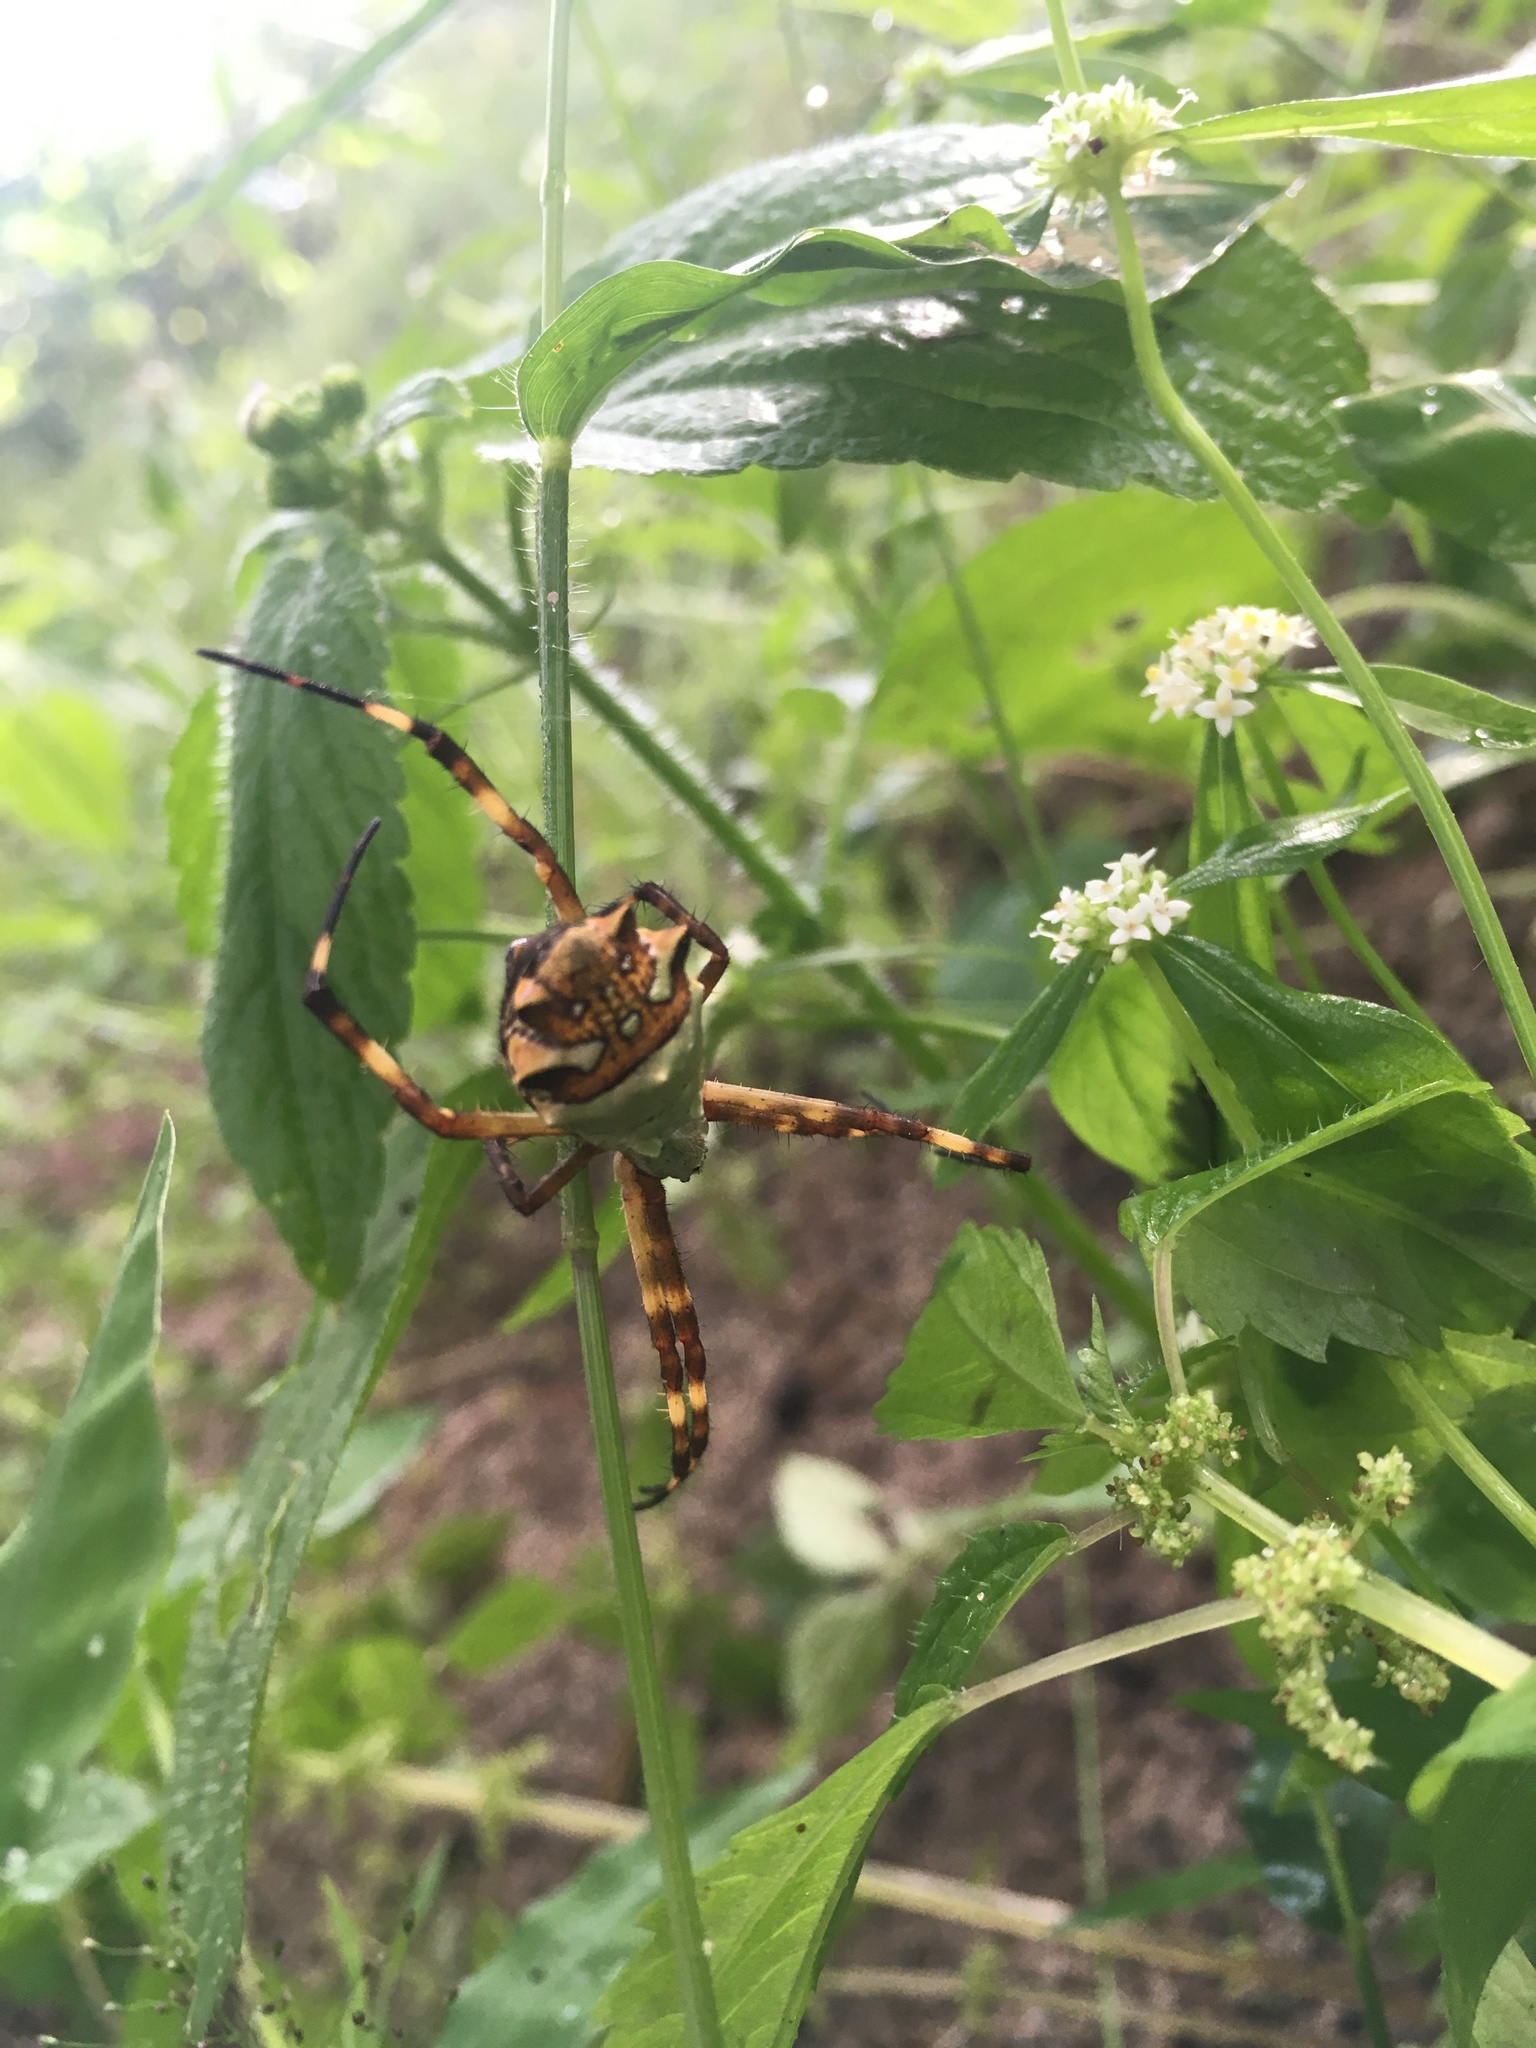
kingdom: Animalia
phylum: Arthropoda
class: Arachnida
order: Araneae
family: Araneidae
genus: Argiope
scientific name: Argiope argentata
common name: Orb weavers
